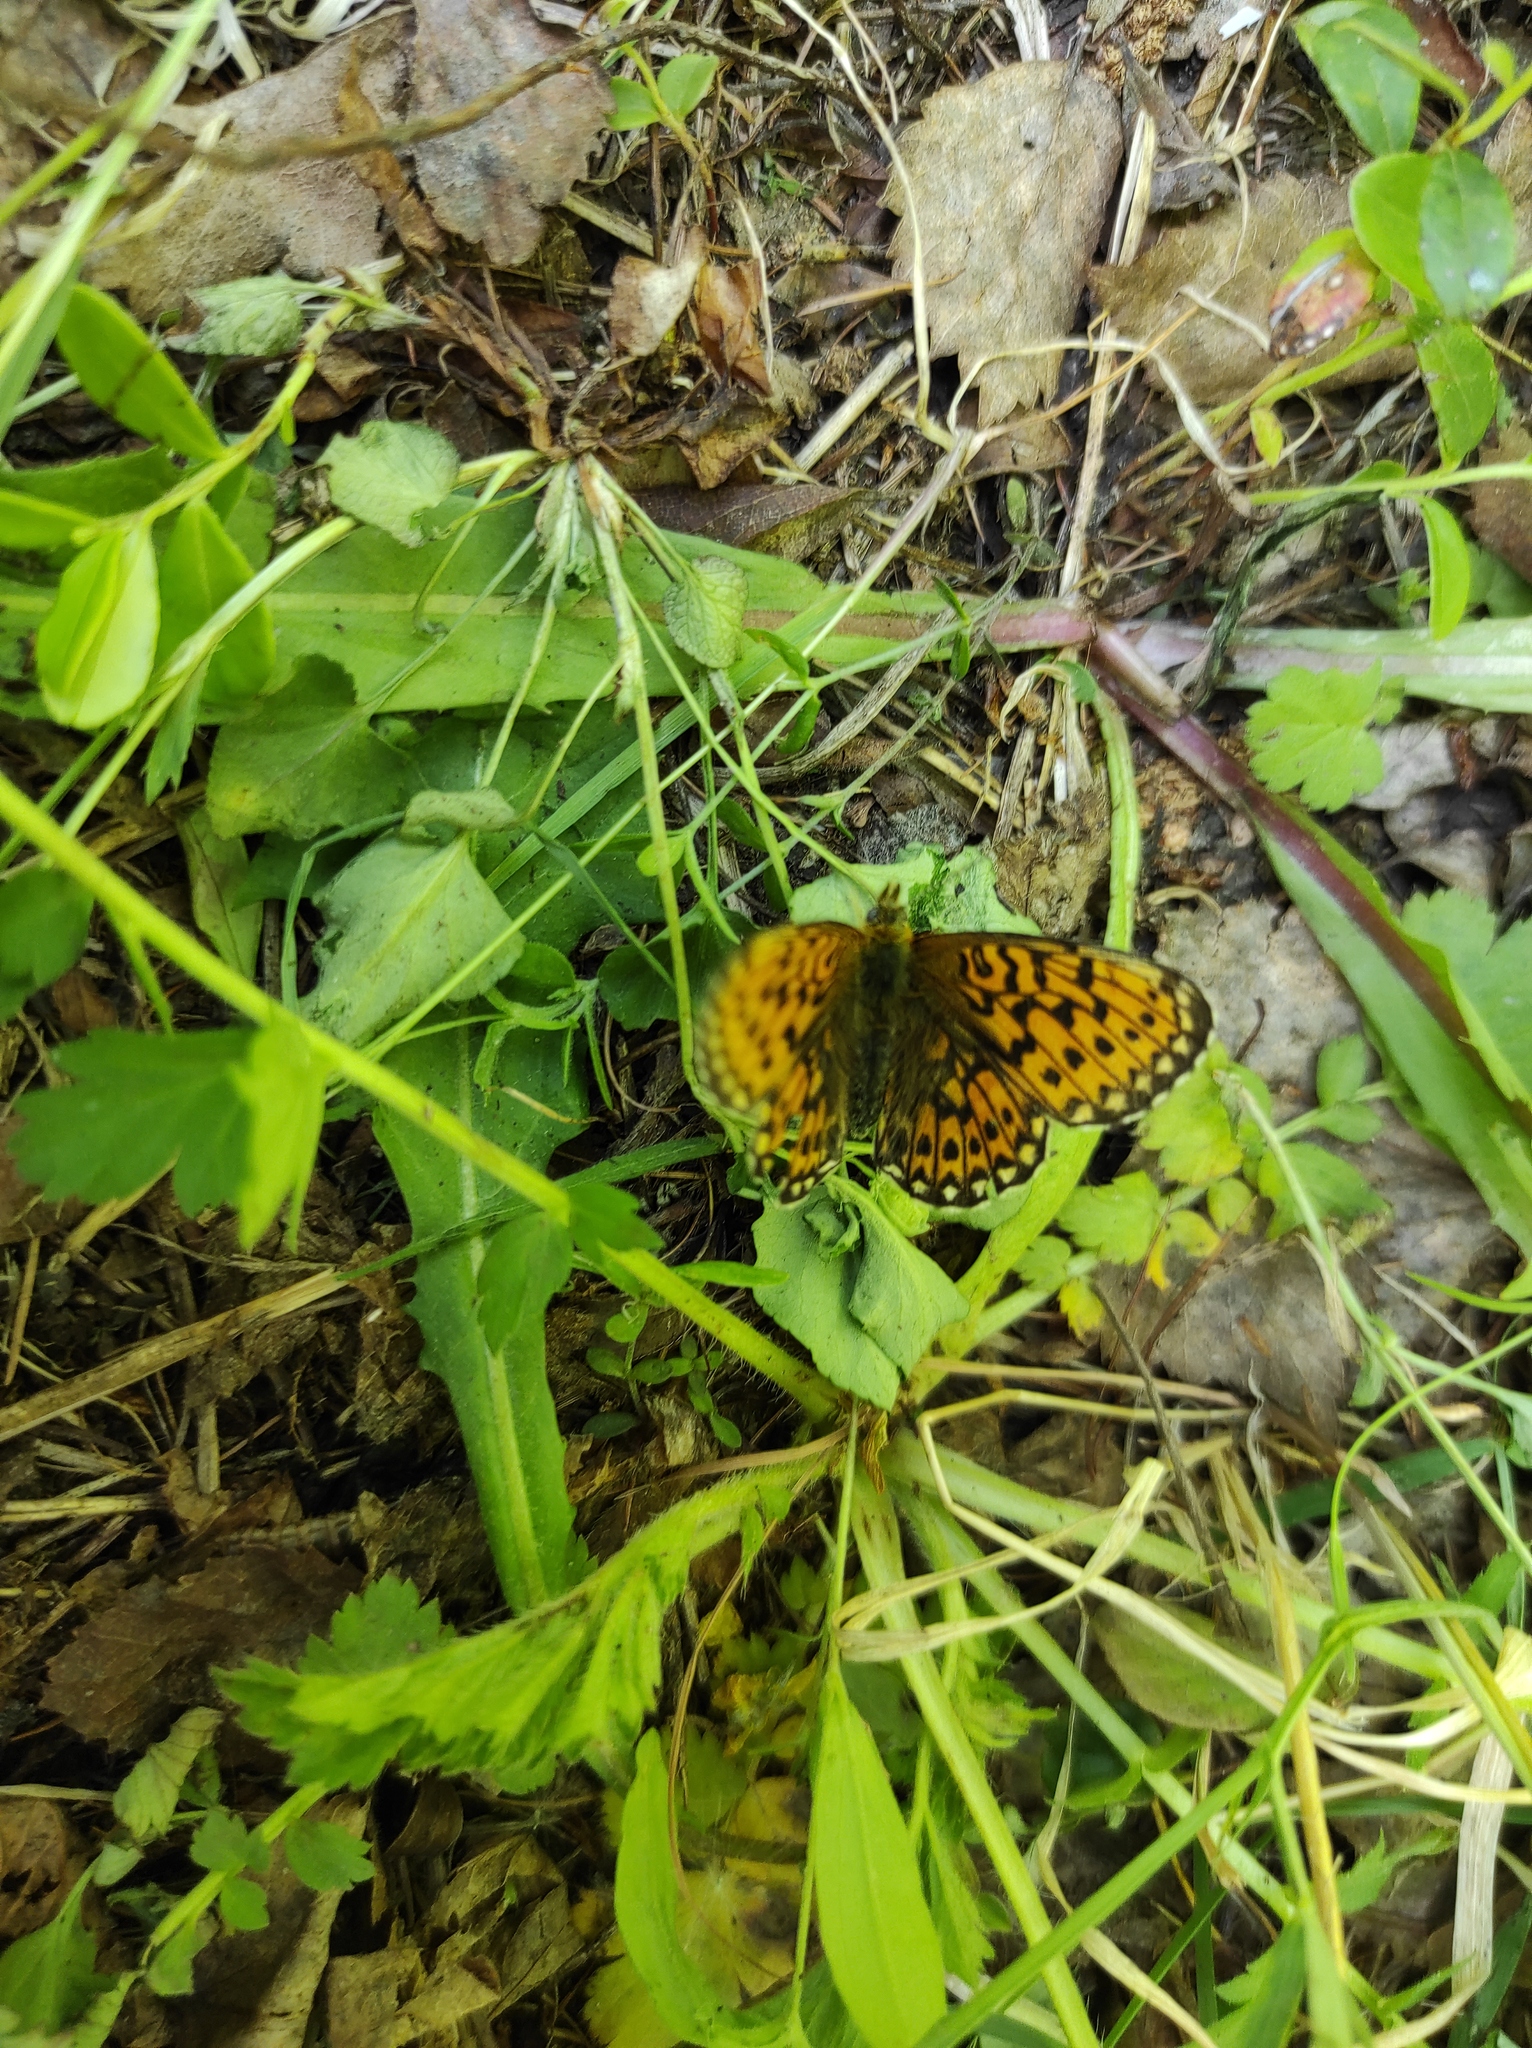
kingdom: Animalia
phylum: Arthropoda
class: Insecta
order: Lepidoptera
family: Nymphalidae
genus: Clossiana
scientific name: Clossiana euphrosyne
